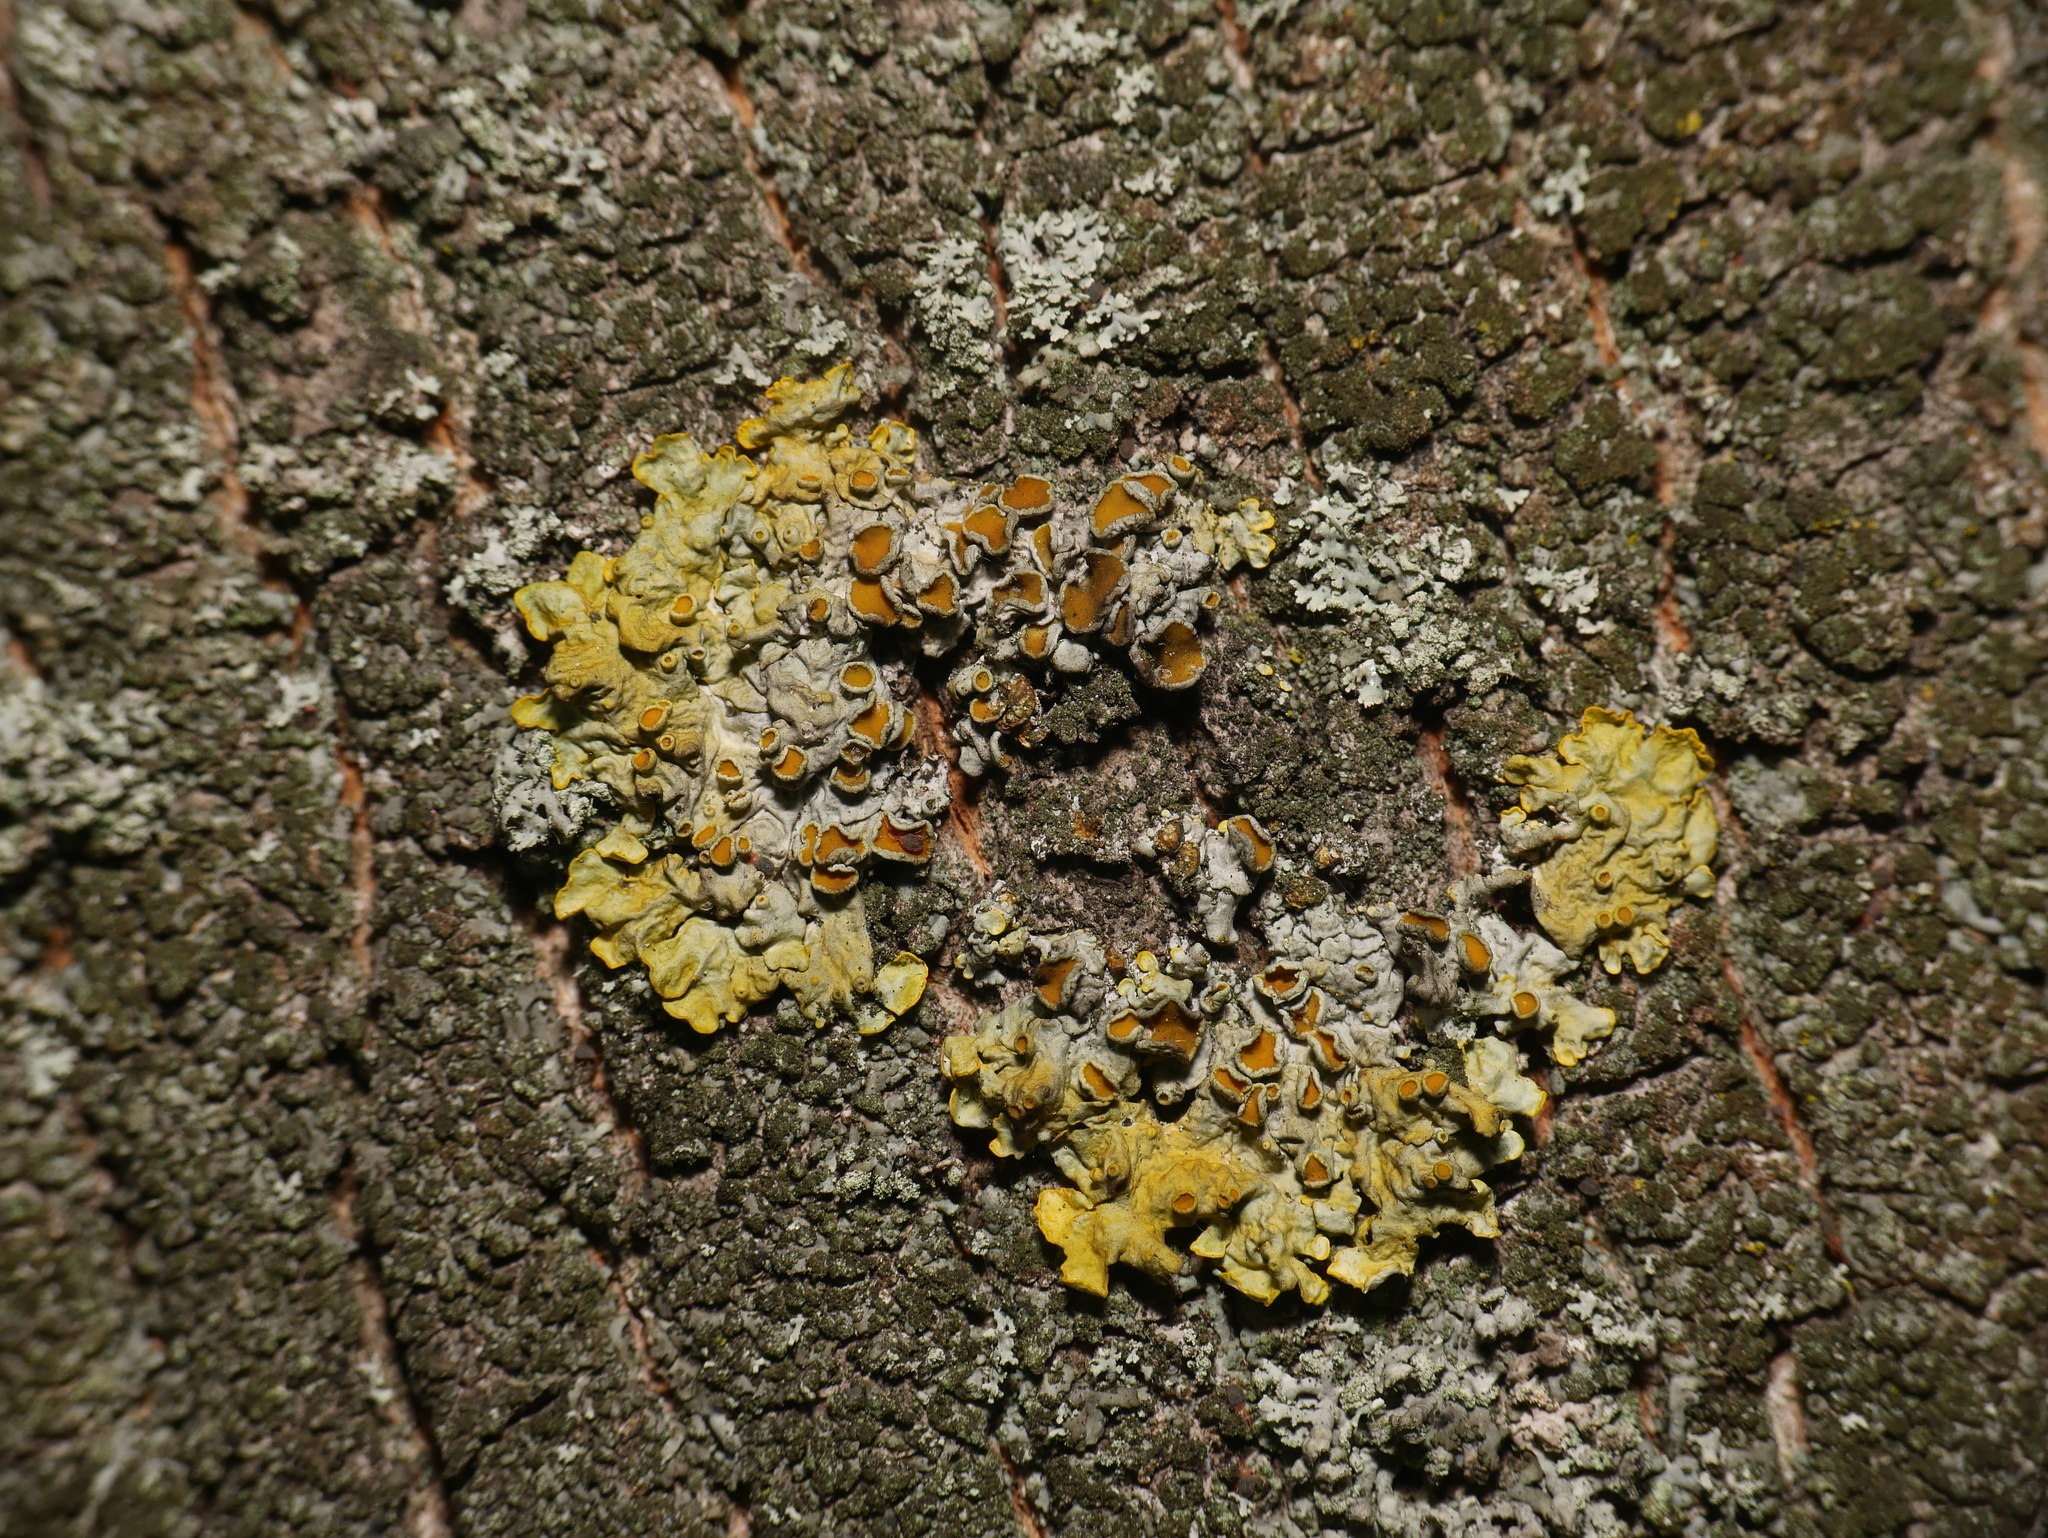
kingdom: Fungi
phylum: Ascomycota
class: Lecanoromycetes
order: Teloschistales
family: Teloschistaceae
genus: Xanthoria
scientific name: Xanthoria parietina
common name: Common orange lichen
